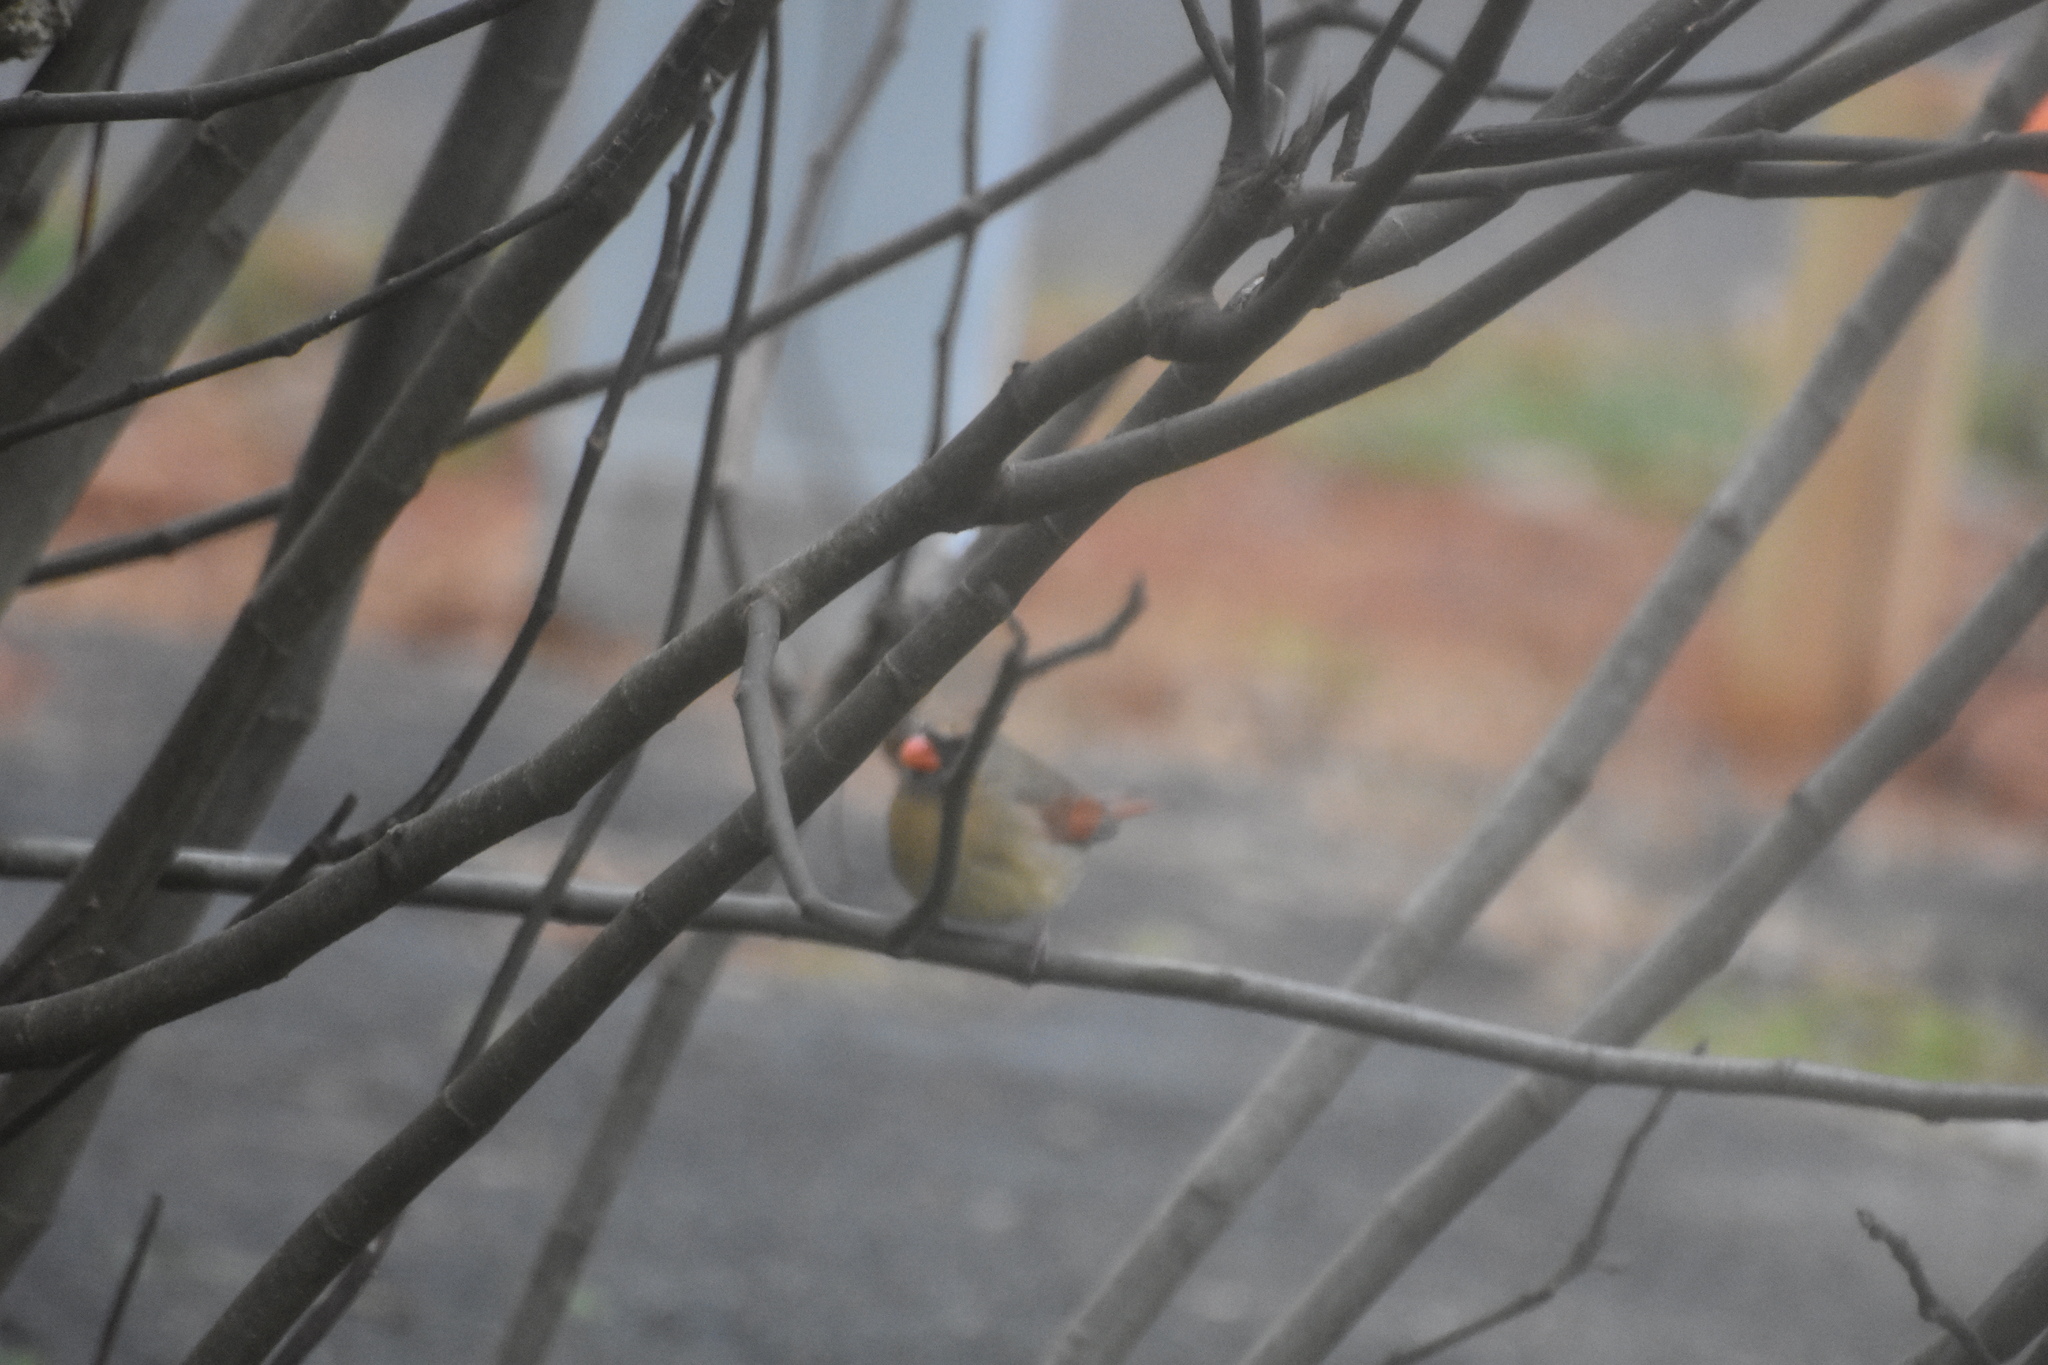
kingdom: Animalia
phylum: Chordata
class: Aves
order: Passeriformes
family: Cardinalidae
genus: Cardinalis
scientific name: Cardinalis cardinalis
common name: Northern cardinal
